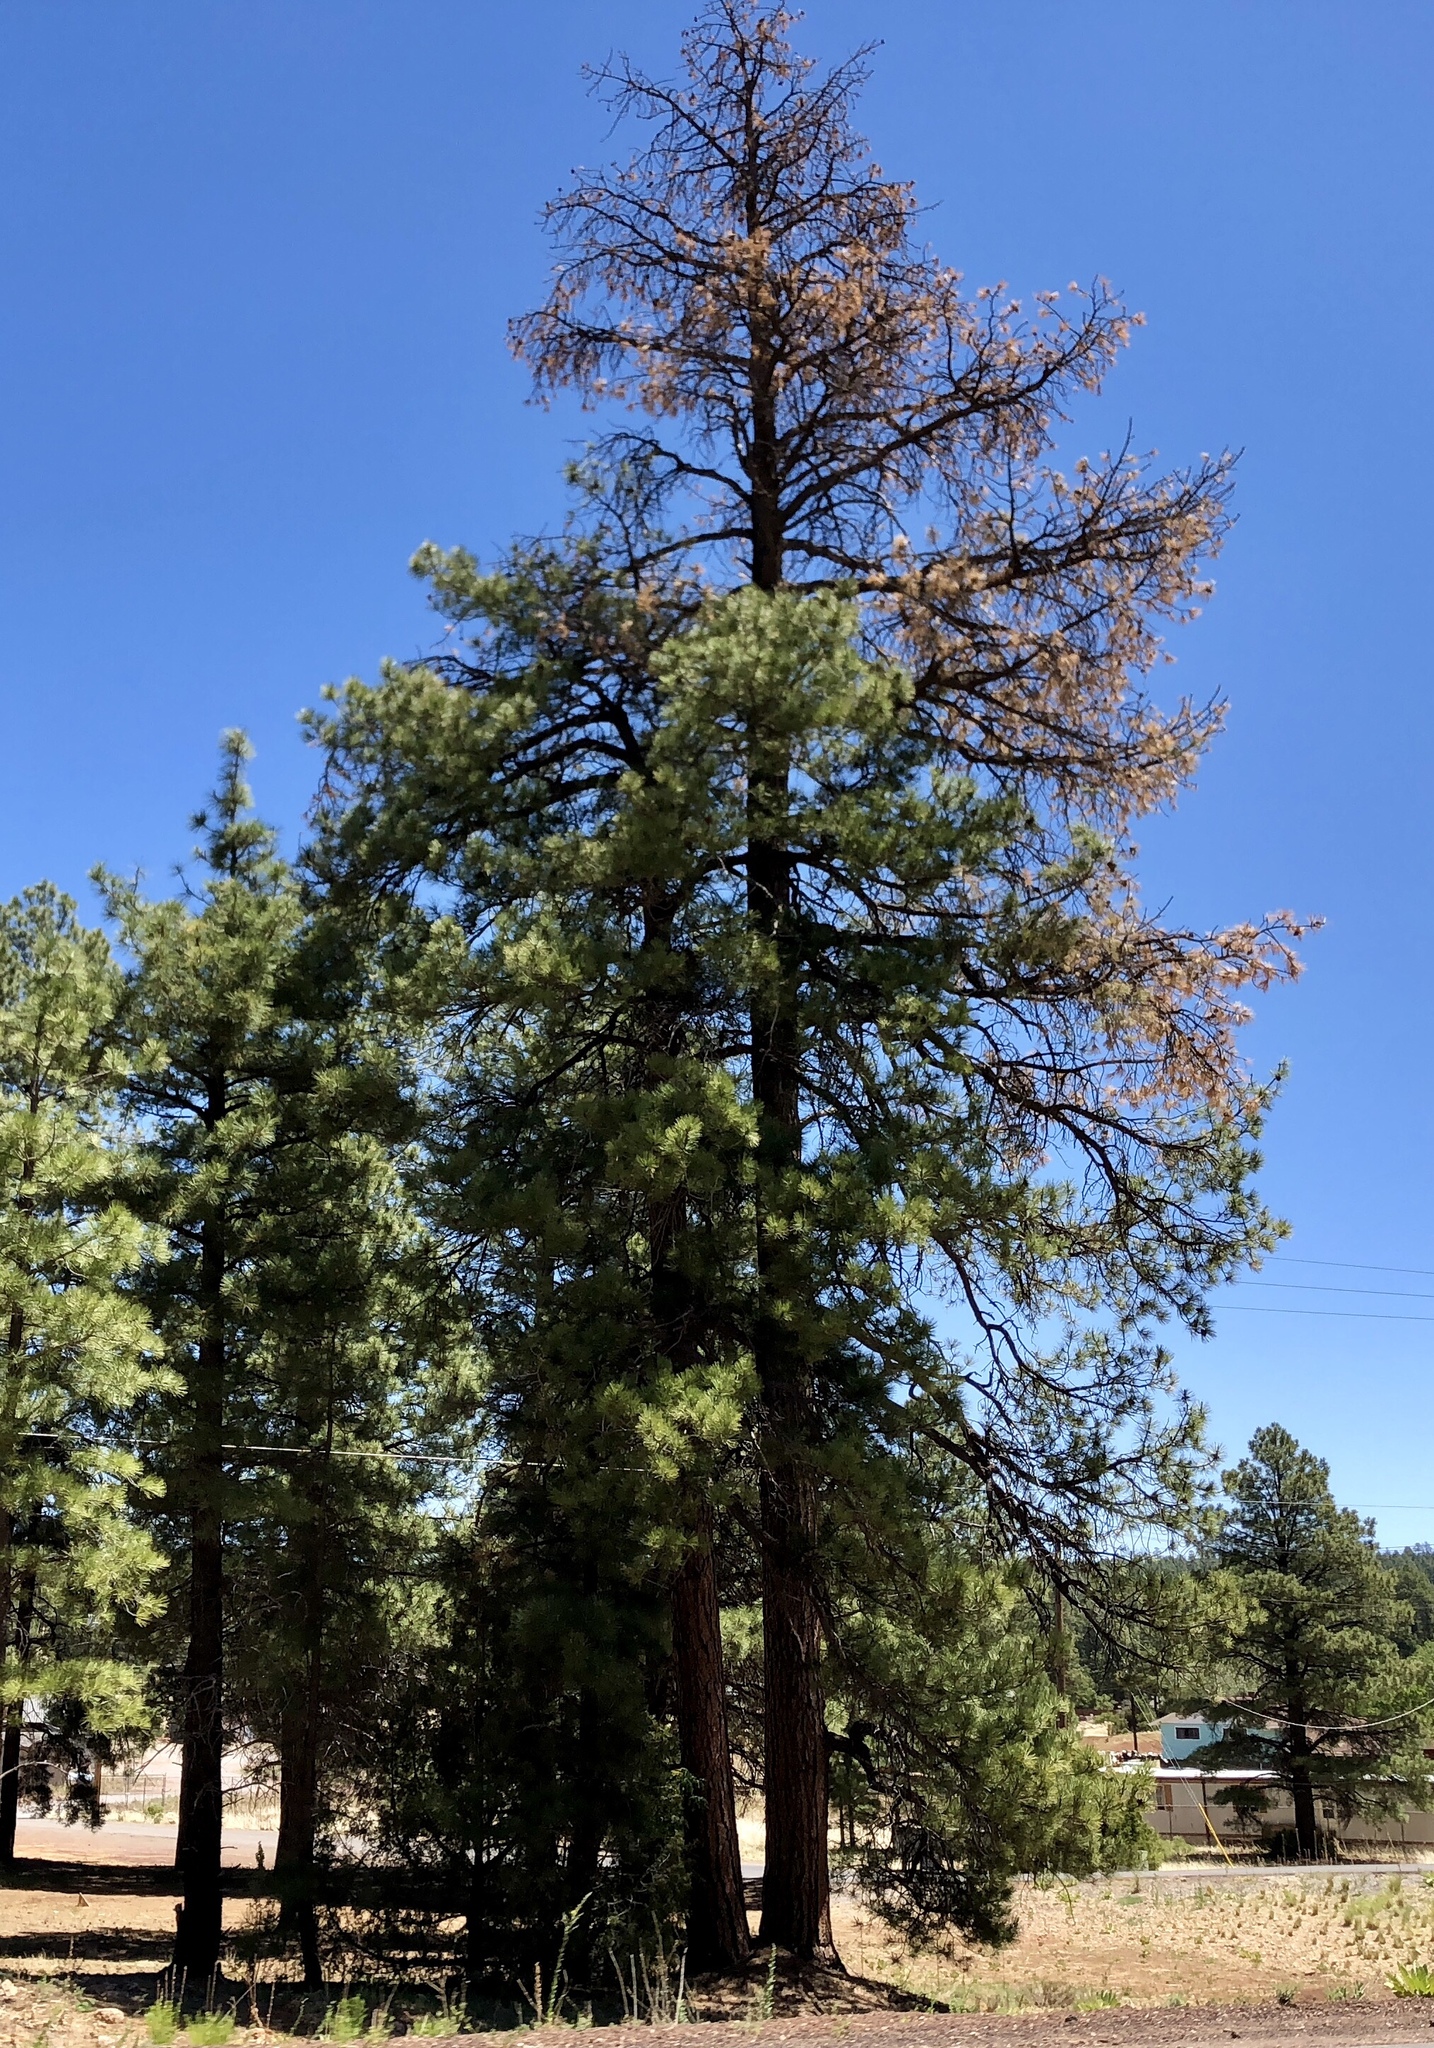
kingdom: Plantae
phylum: Tracheophyta
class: Pinopsida
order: Pinales
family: Pinaceae
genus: Pinus
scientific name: Pinus ponderosa
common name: Western yellow-pine
